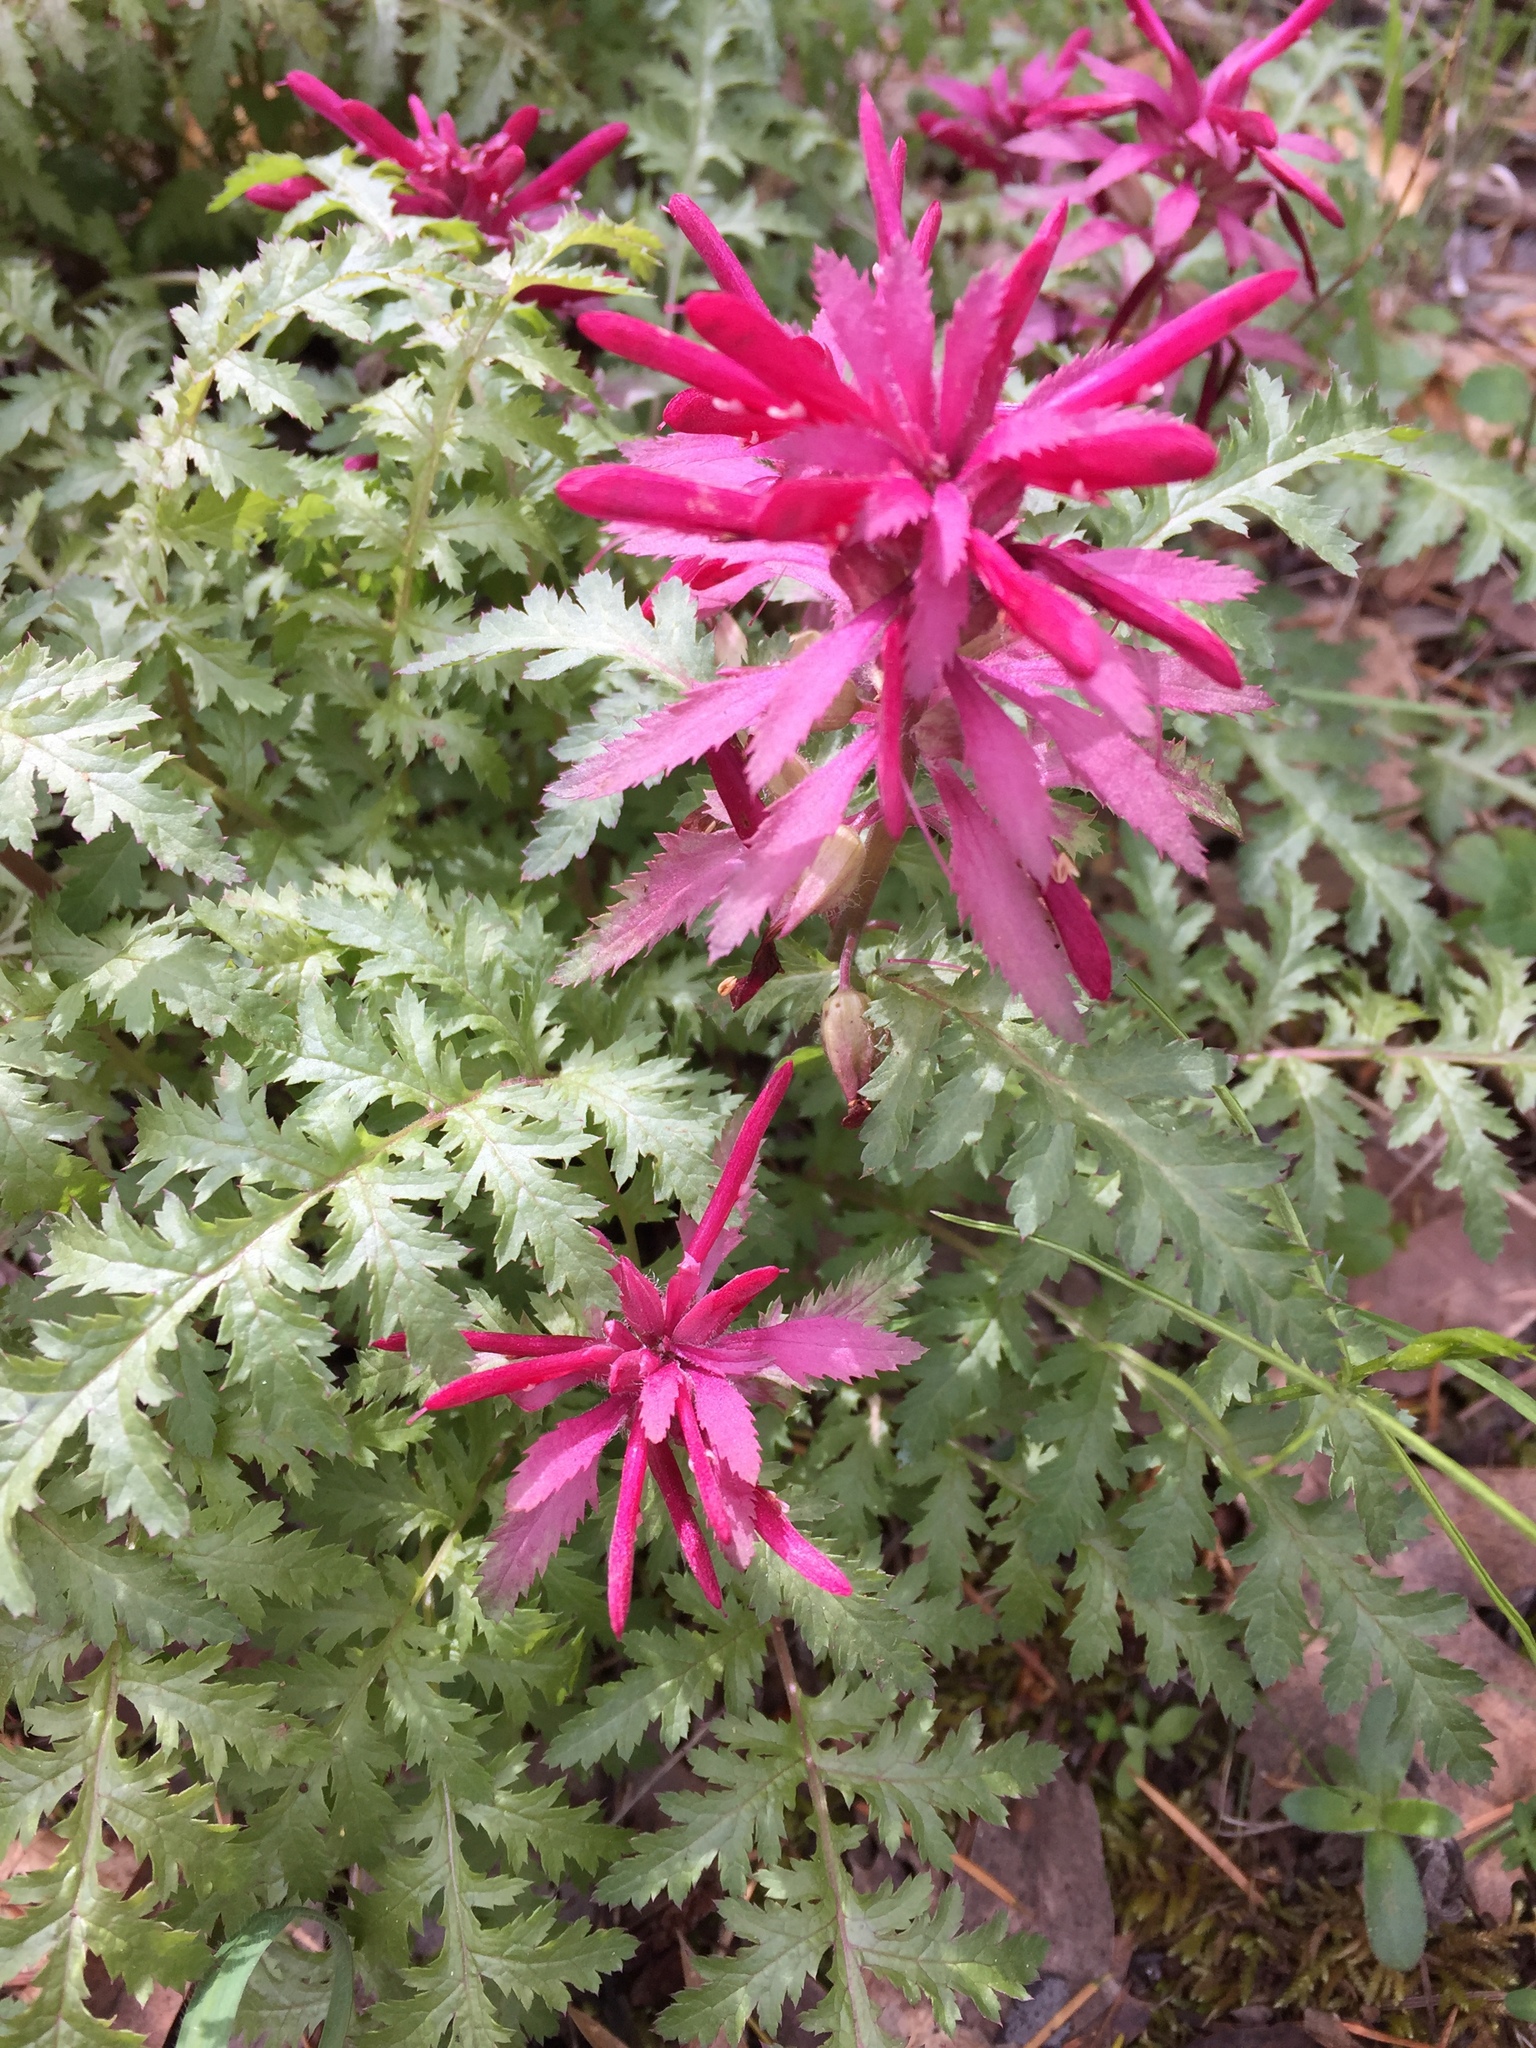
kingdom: Plantae
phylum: Tracheophyta
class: Magnoliopsida
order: Lamiales
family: Orobanchaceae
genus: Pedicularis
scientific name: Pedicularis densiflora
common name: Indian warrior
